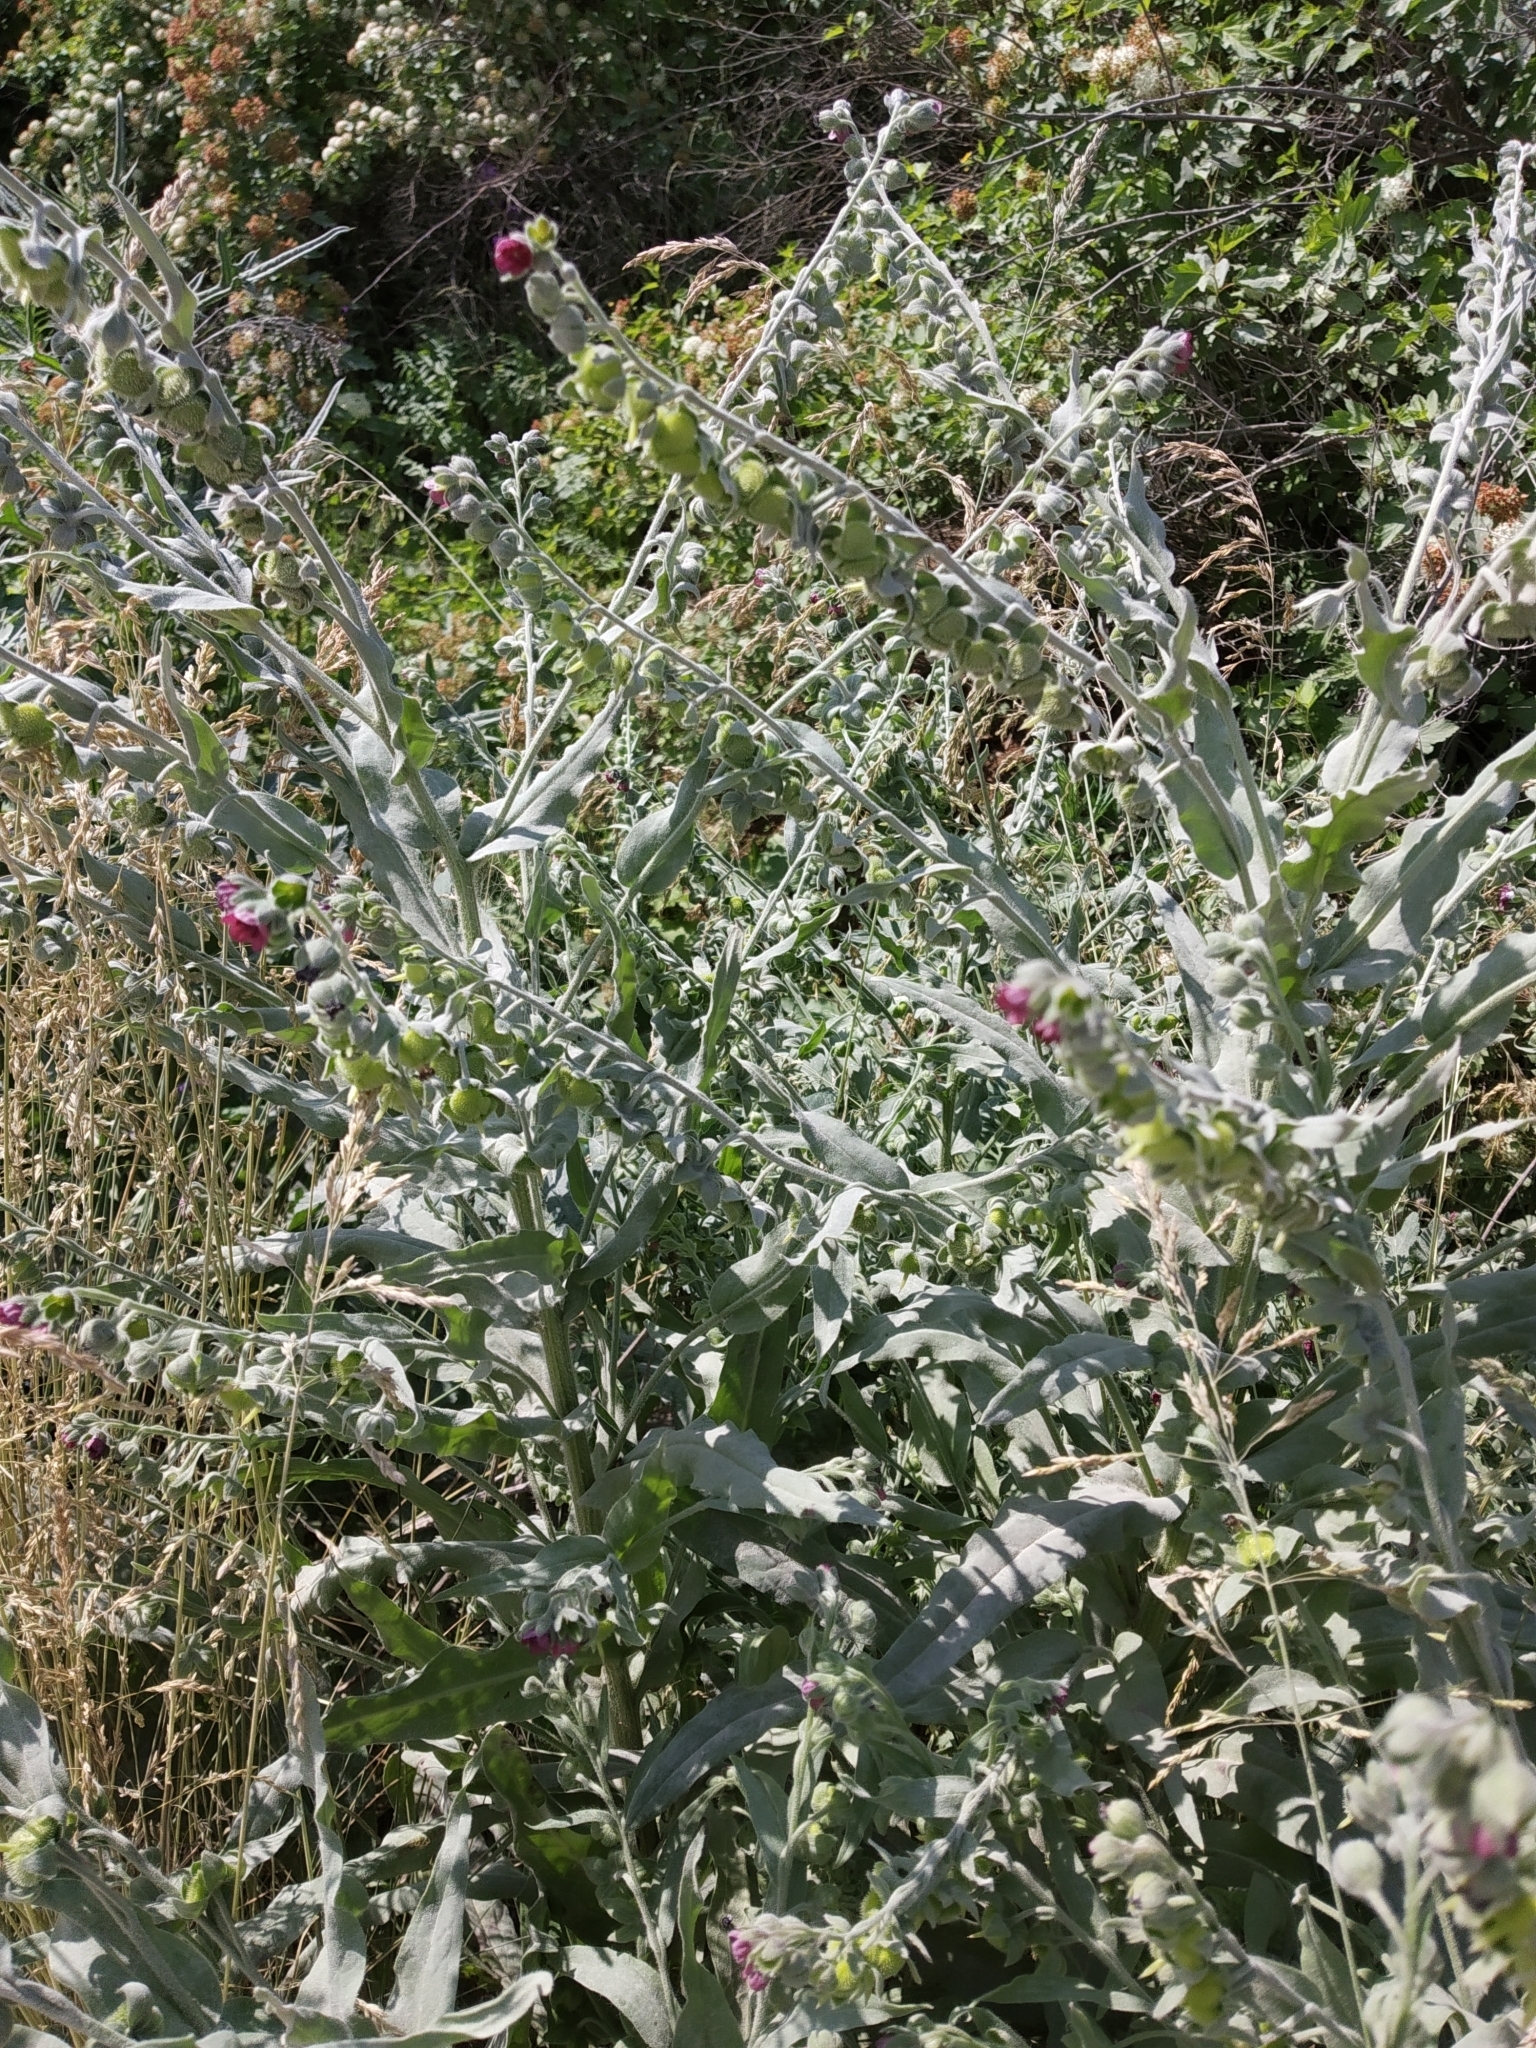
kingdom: Plantae
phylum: Tracheophyta
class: Magnoliopsida
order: Boraginales
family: Boraginaceae
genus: Cynoglossum
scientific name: Cynoglossum officinale
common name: Hound's-tongue
